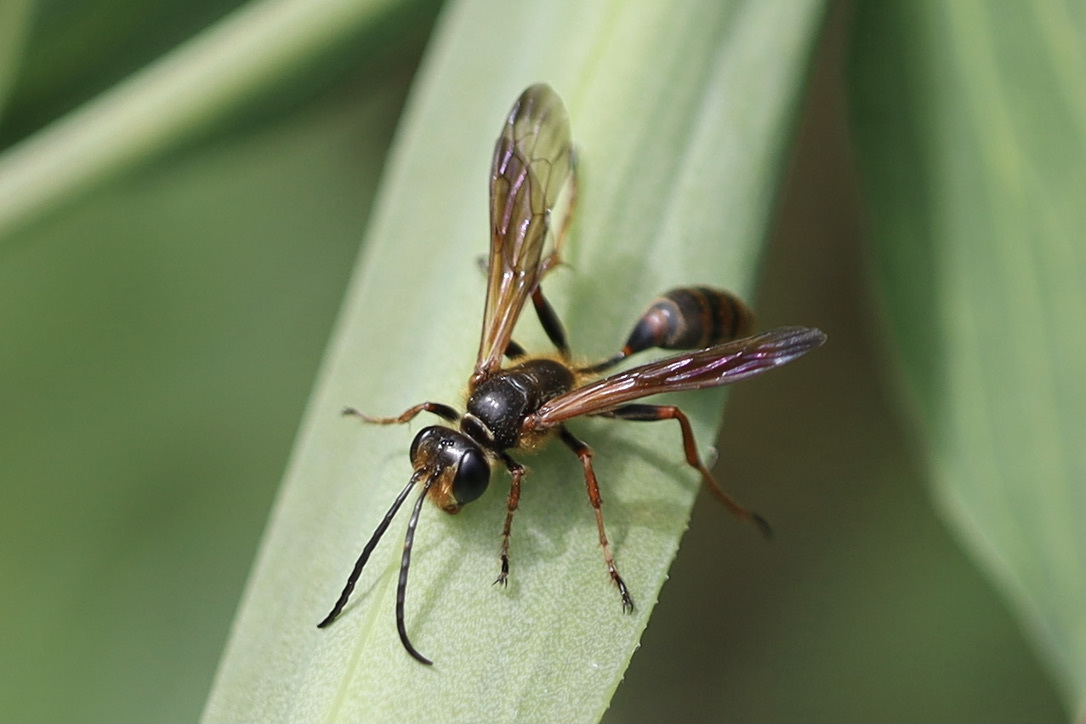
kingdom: Animalia
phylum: Arthropoda
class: Insecta
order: Hymenoptera
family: Sphecidae
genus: Isodontia
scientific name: Isodontia elegans
